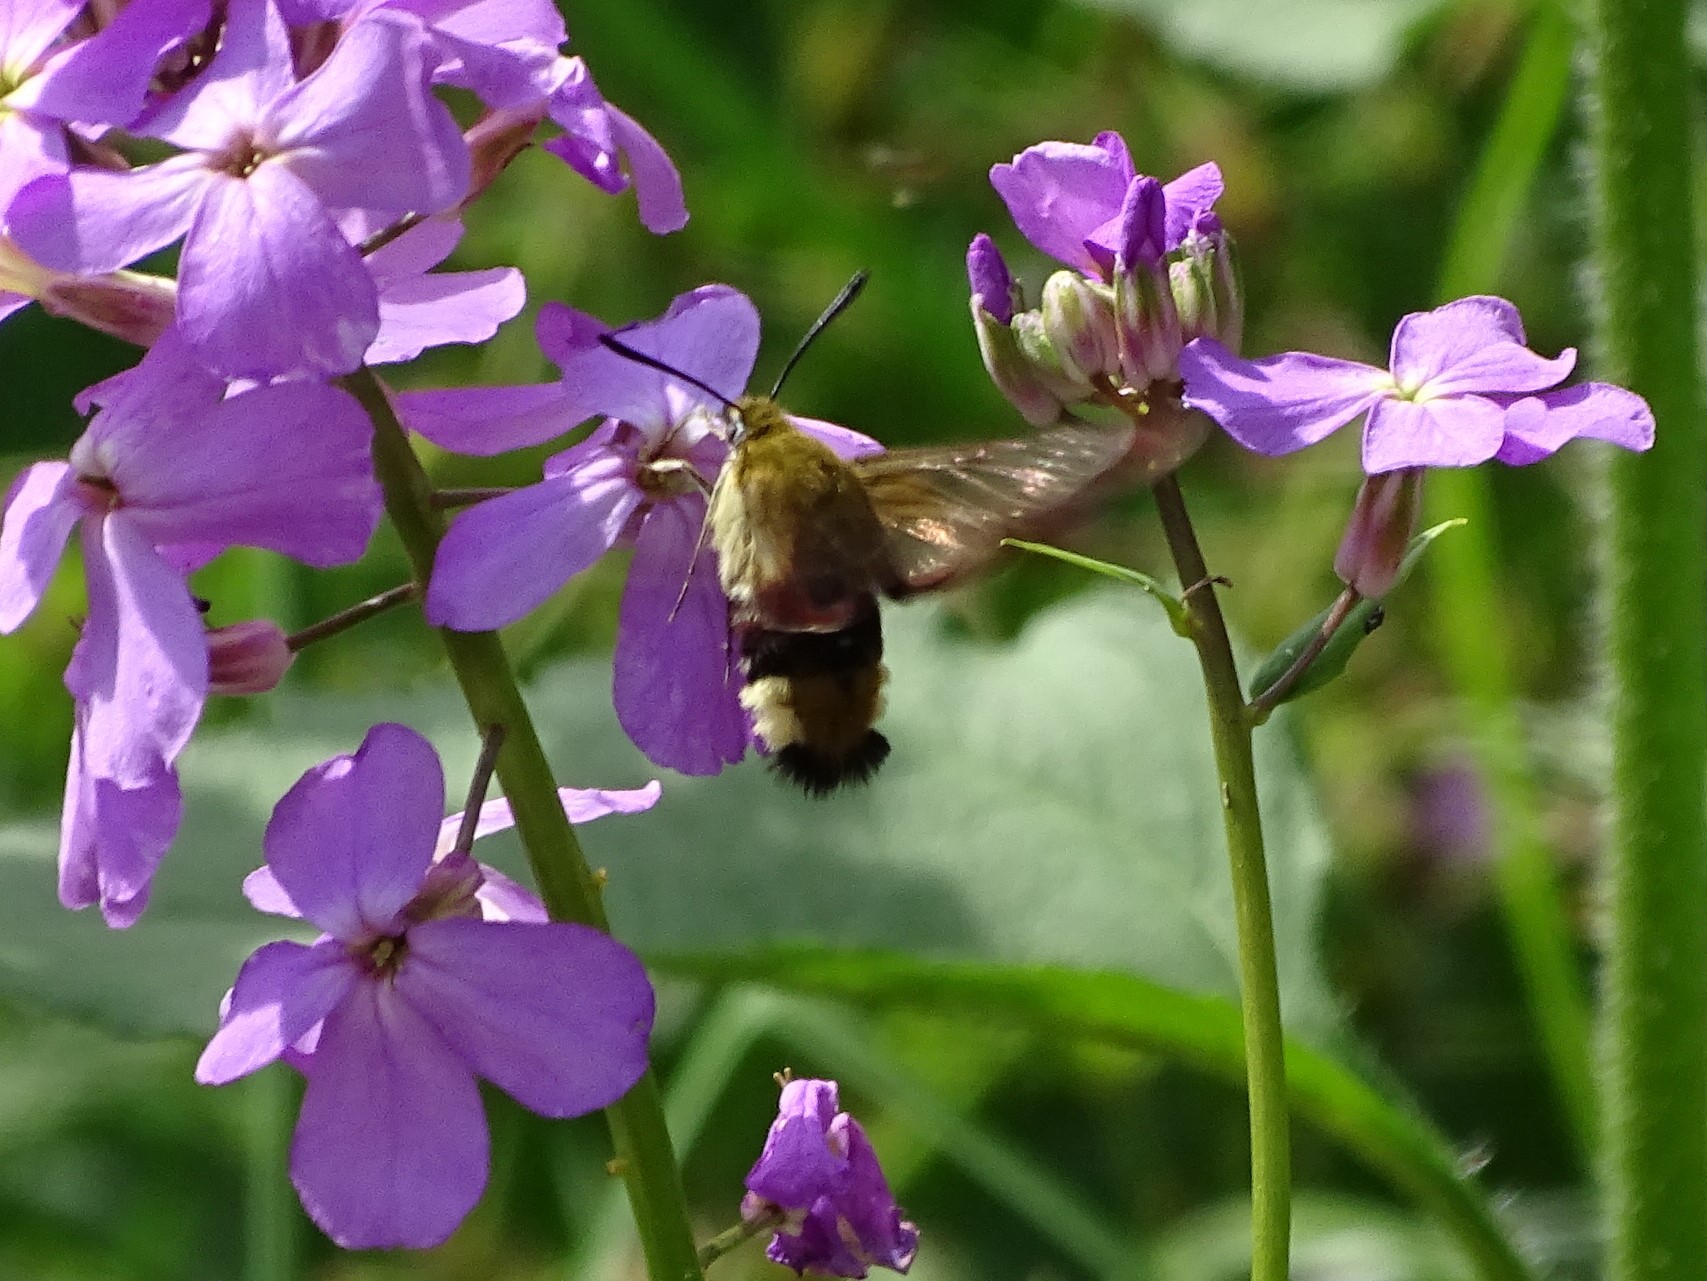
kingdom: Animalia
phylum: Arthropoda
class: Insecta
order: Lepidoptera
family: Sphingidae
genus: Hemaris
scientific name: Hemaris fuciformis
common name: Broad-bordered bee hawk-moth
